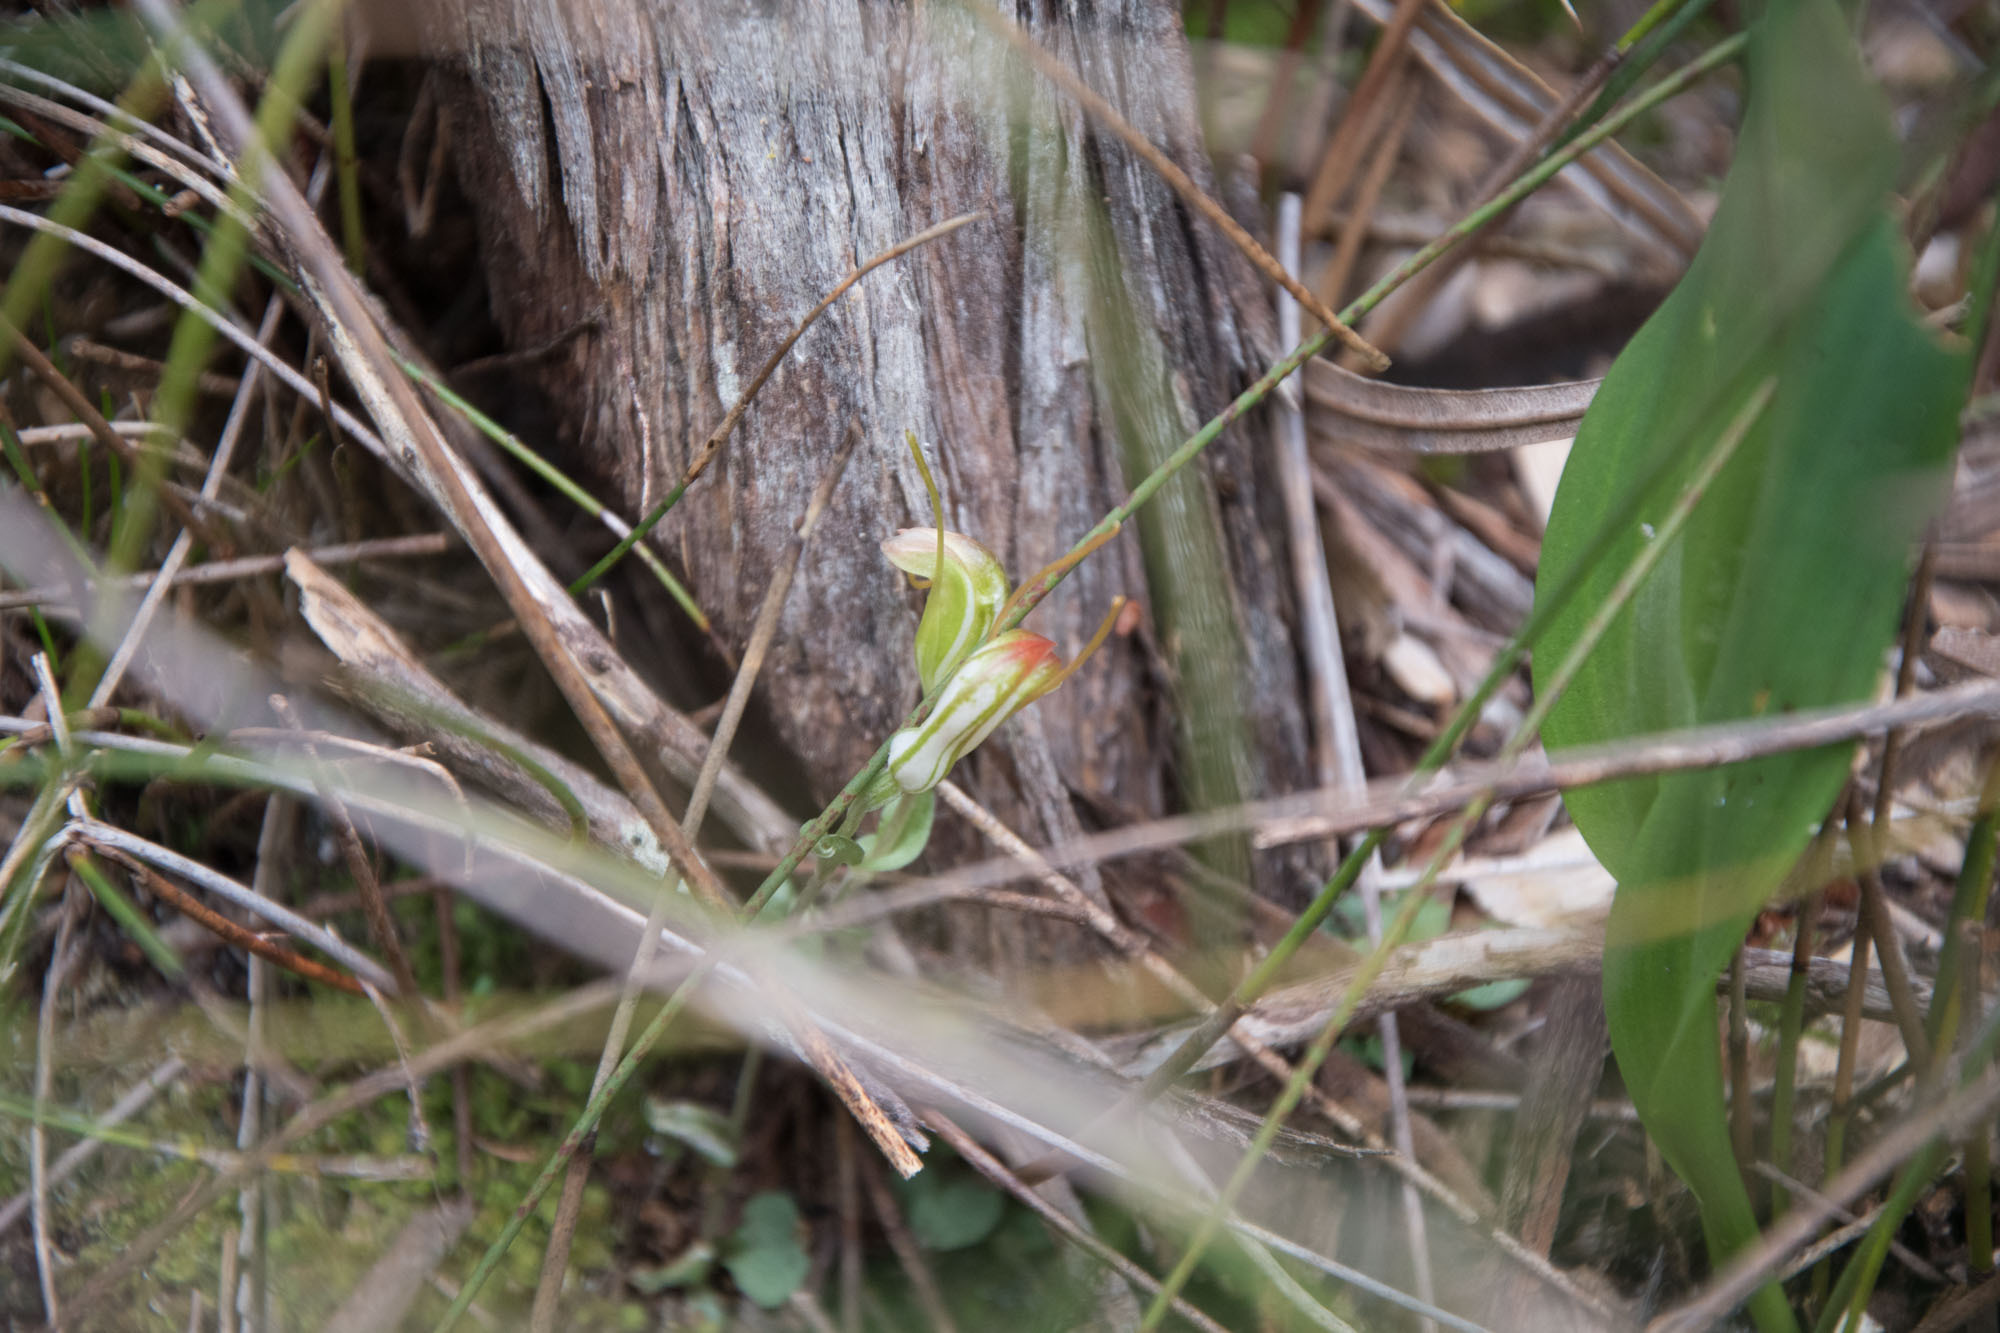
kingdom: Plantae
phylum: Tracheophyta
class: Liliopsida
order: Asparagales
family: Orchidaceae
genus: Pterostylis
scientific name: Pterostylis erubescens
